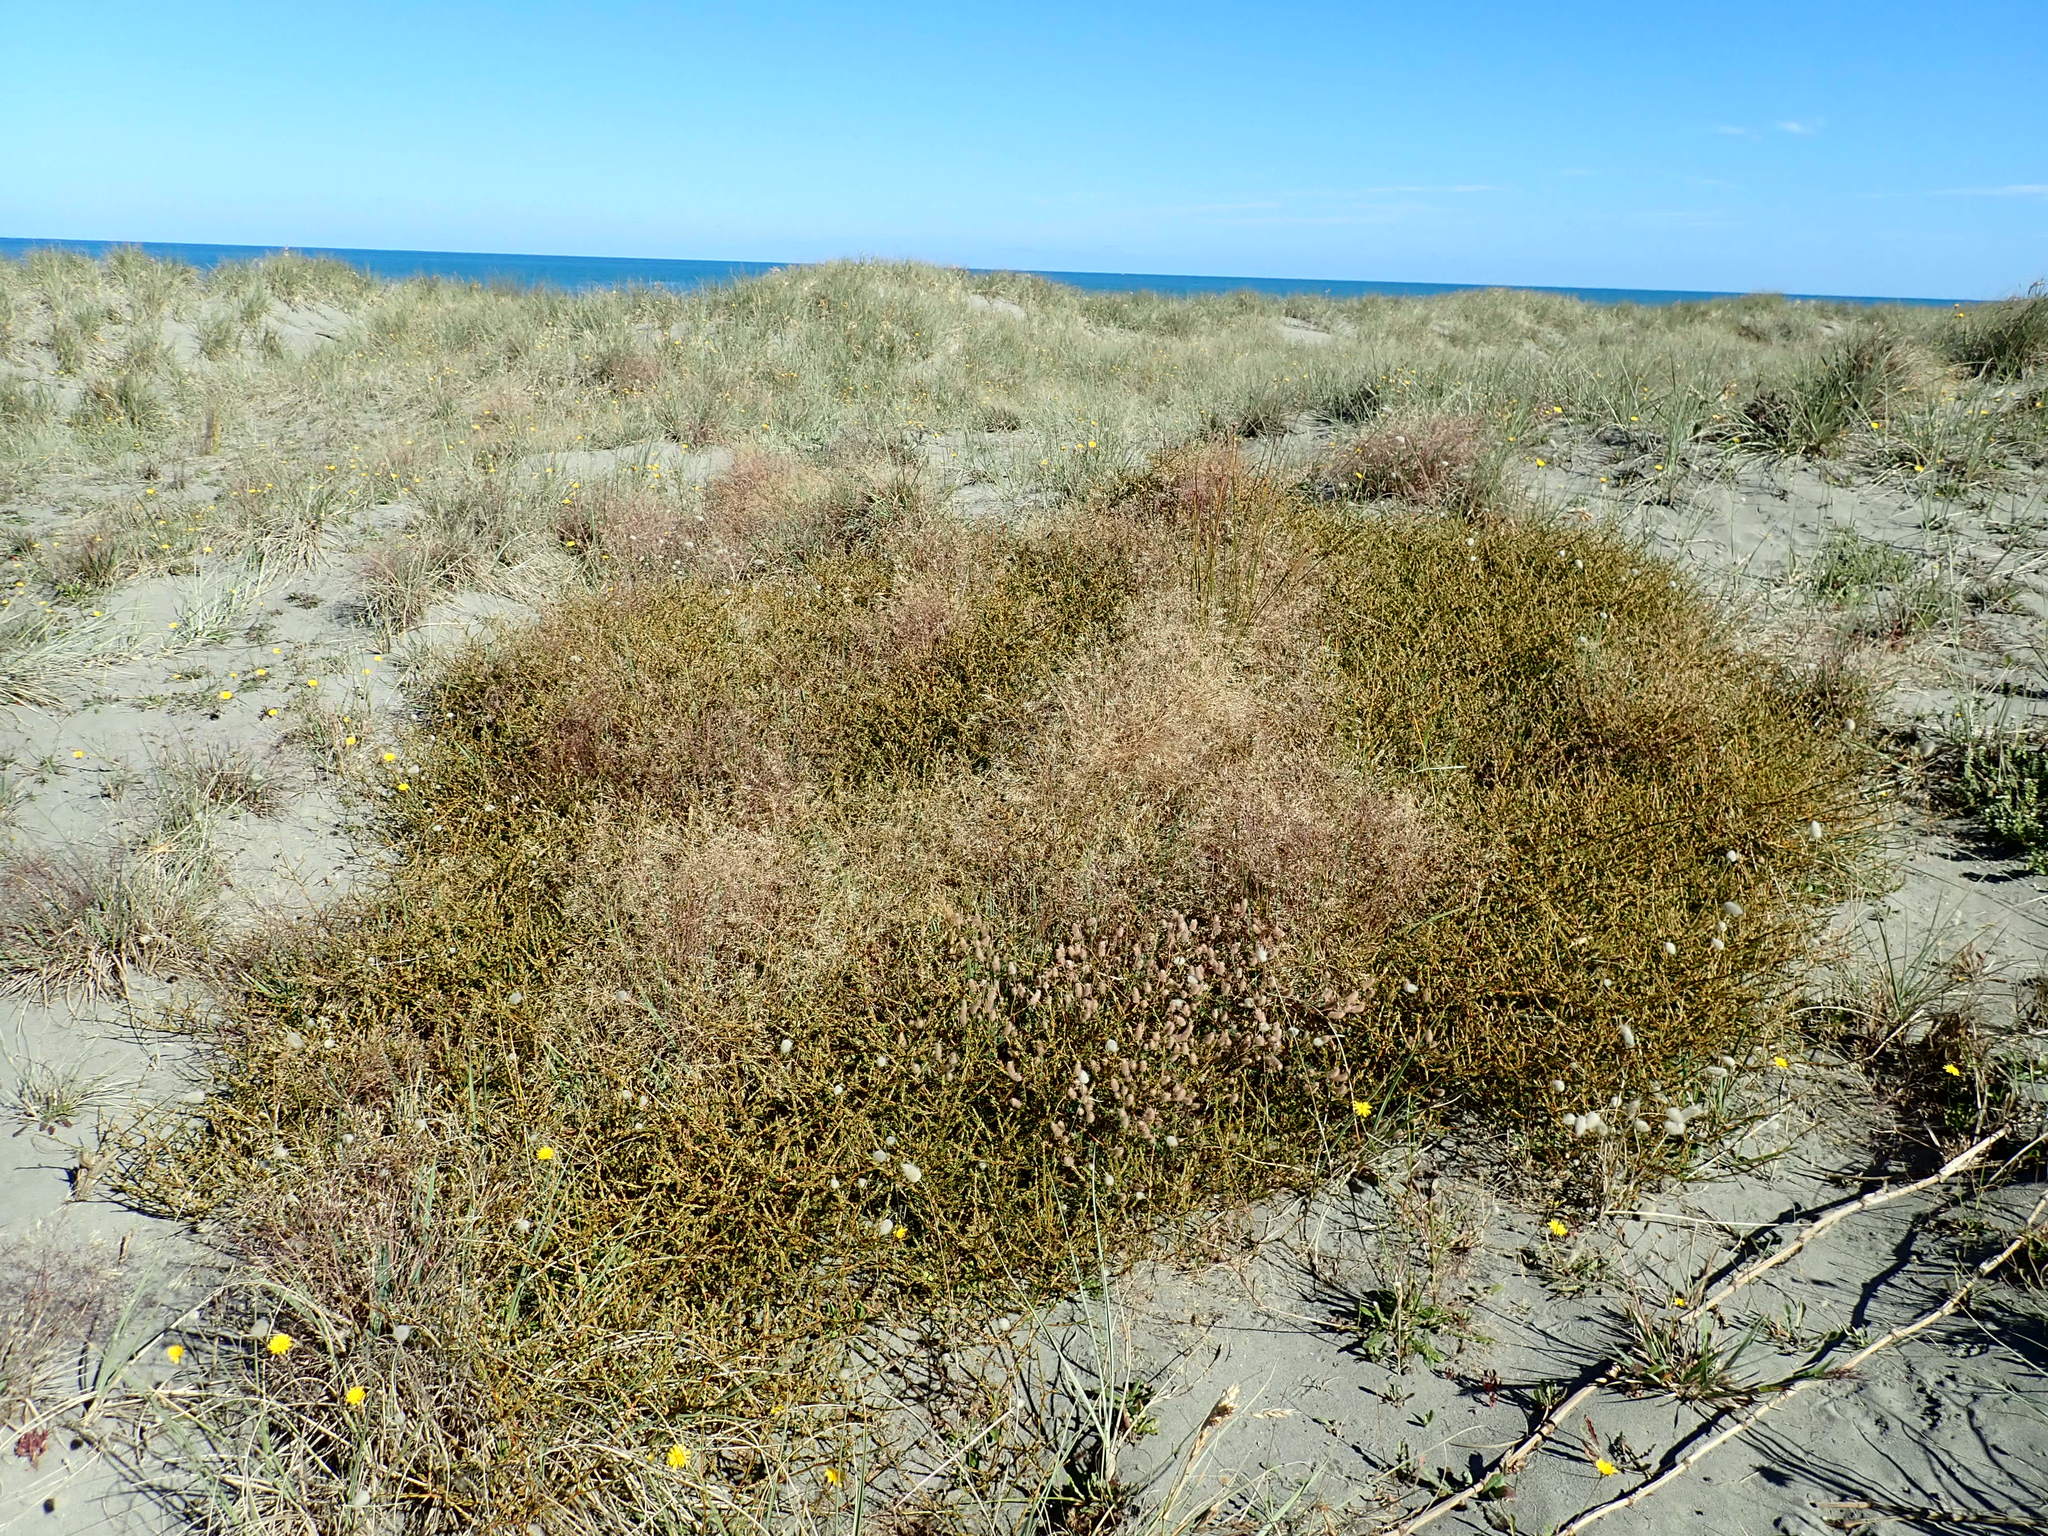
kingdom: Plantae
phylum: Tracheophyta
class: Magnoliopsida
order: Gentianales
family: Rubiaceae
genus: Coprosma
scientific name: Coprosma acerosa
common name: Sand coprosma
